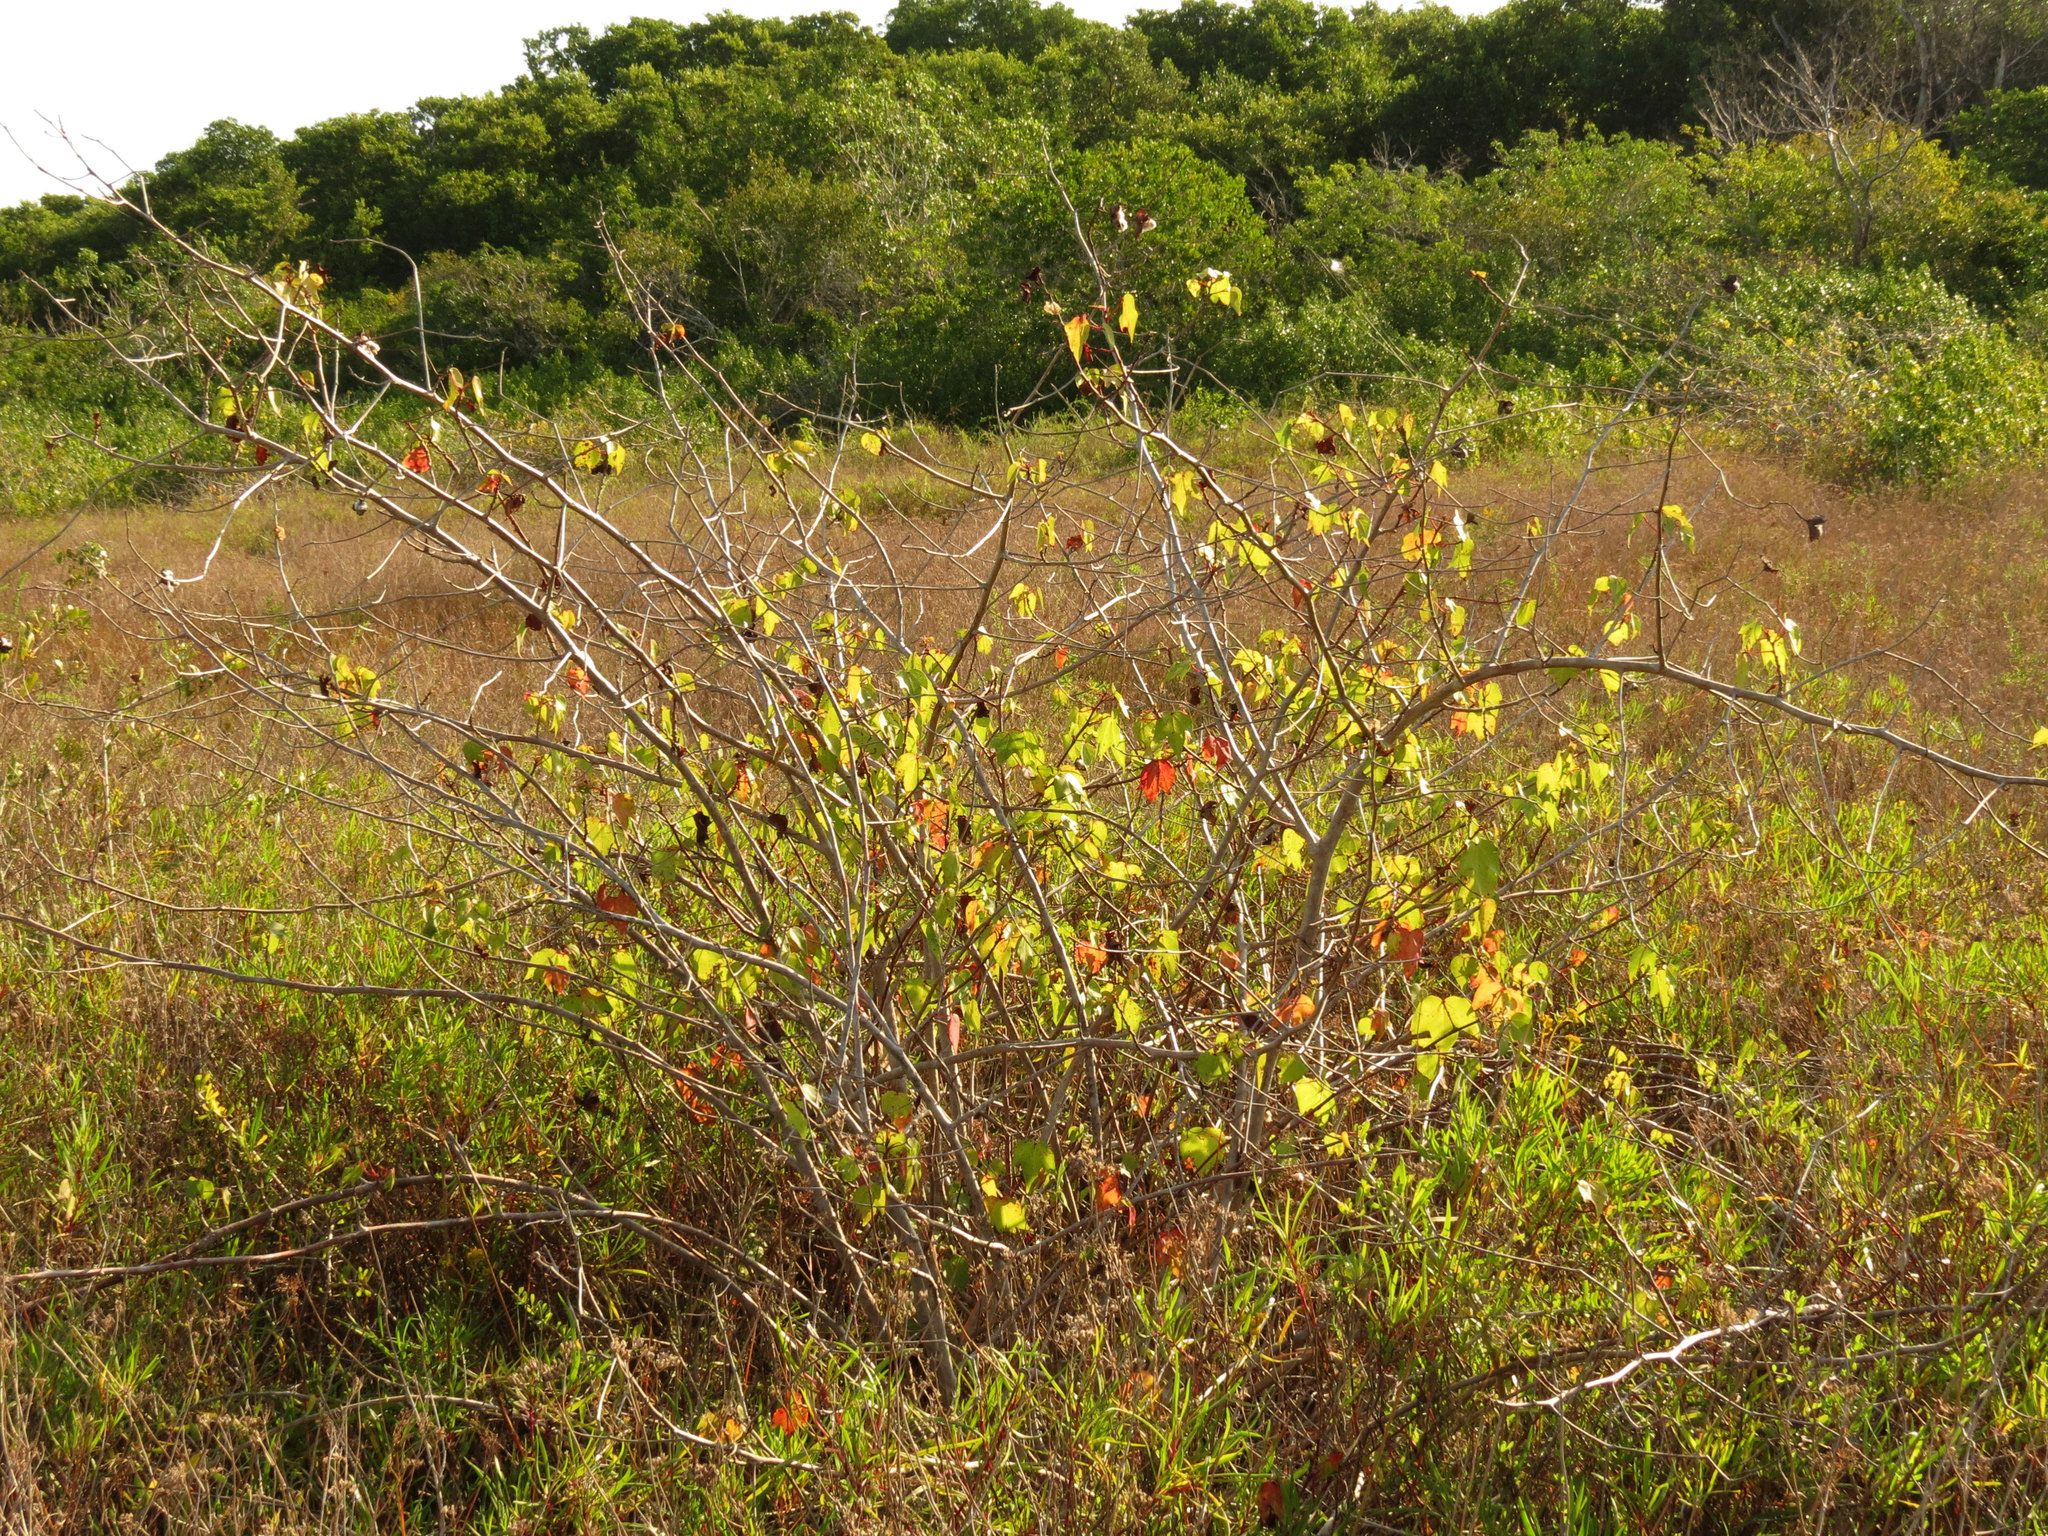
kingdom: Plantae
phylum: Tracheophyta
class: Magnoliopsida
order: Malvales
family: Malvaceae
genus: Gossypium
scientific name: Gossypium hirsutum
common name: Cotton
